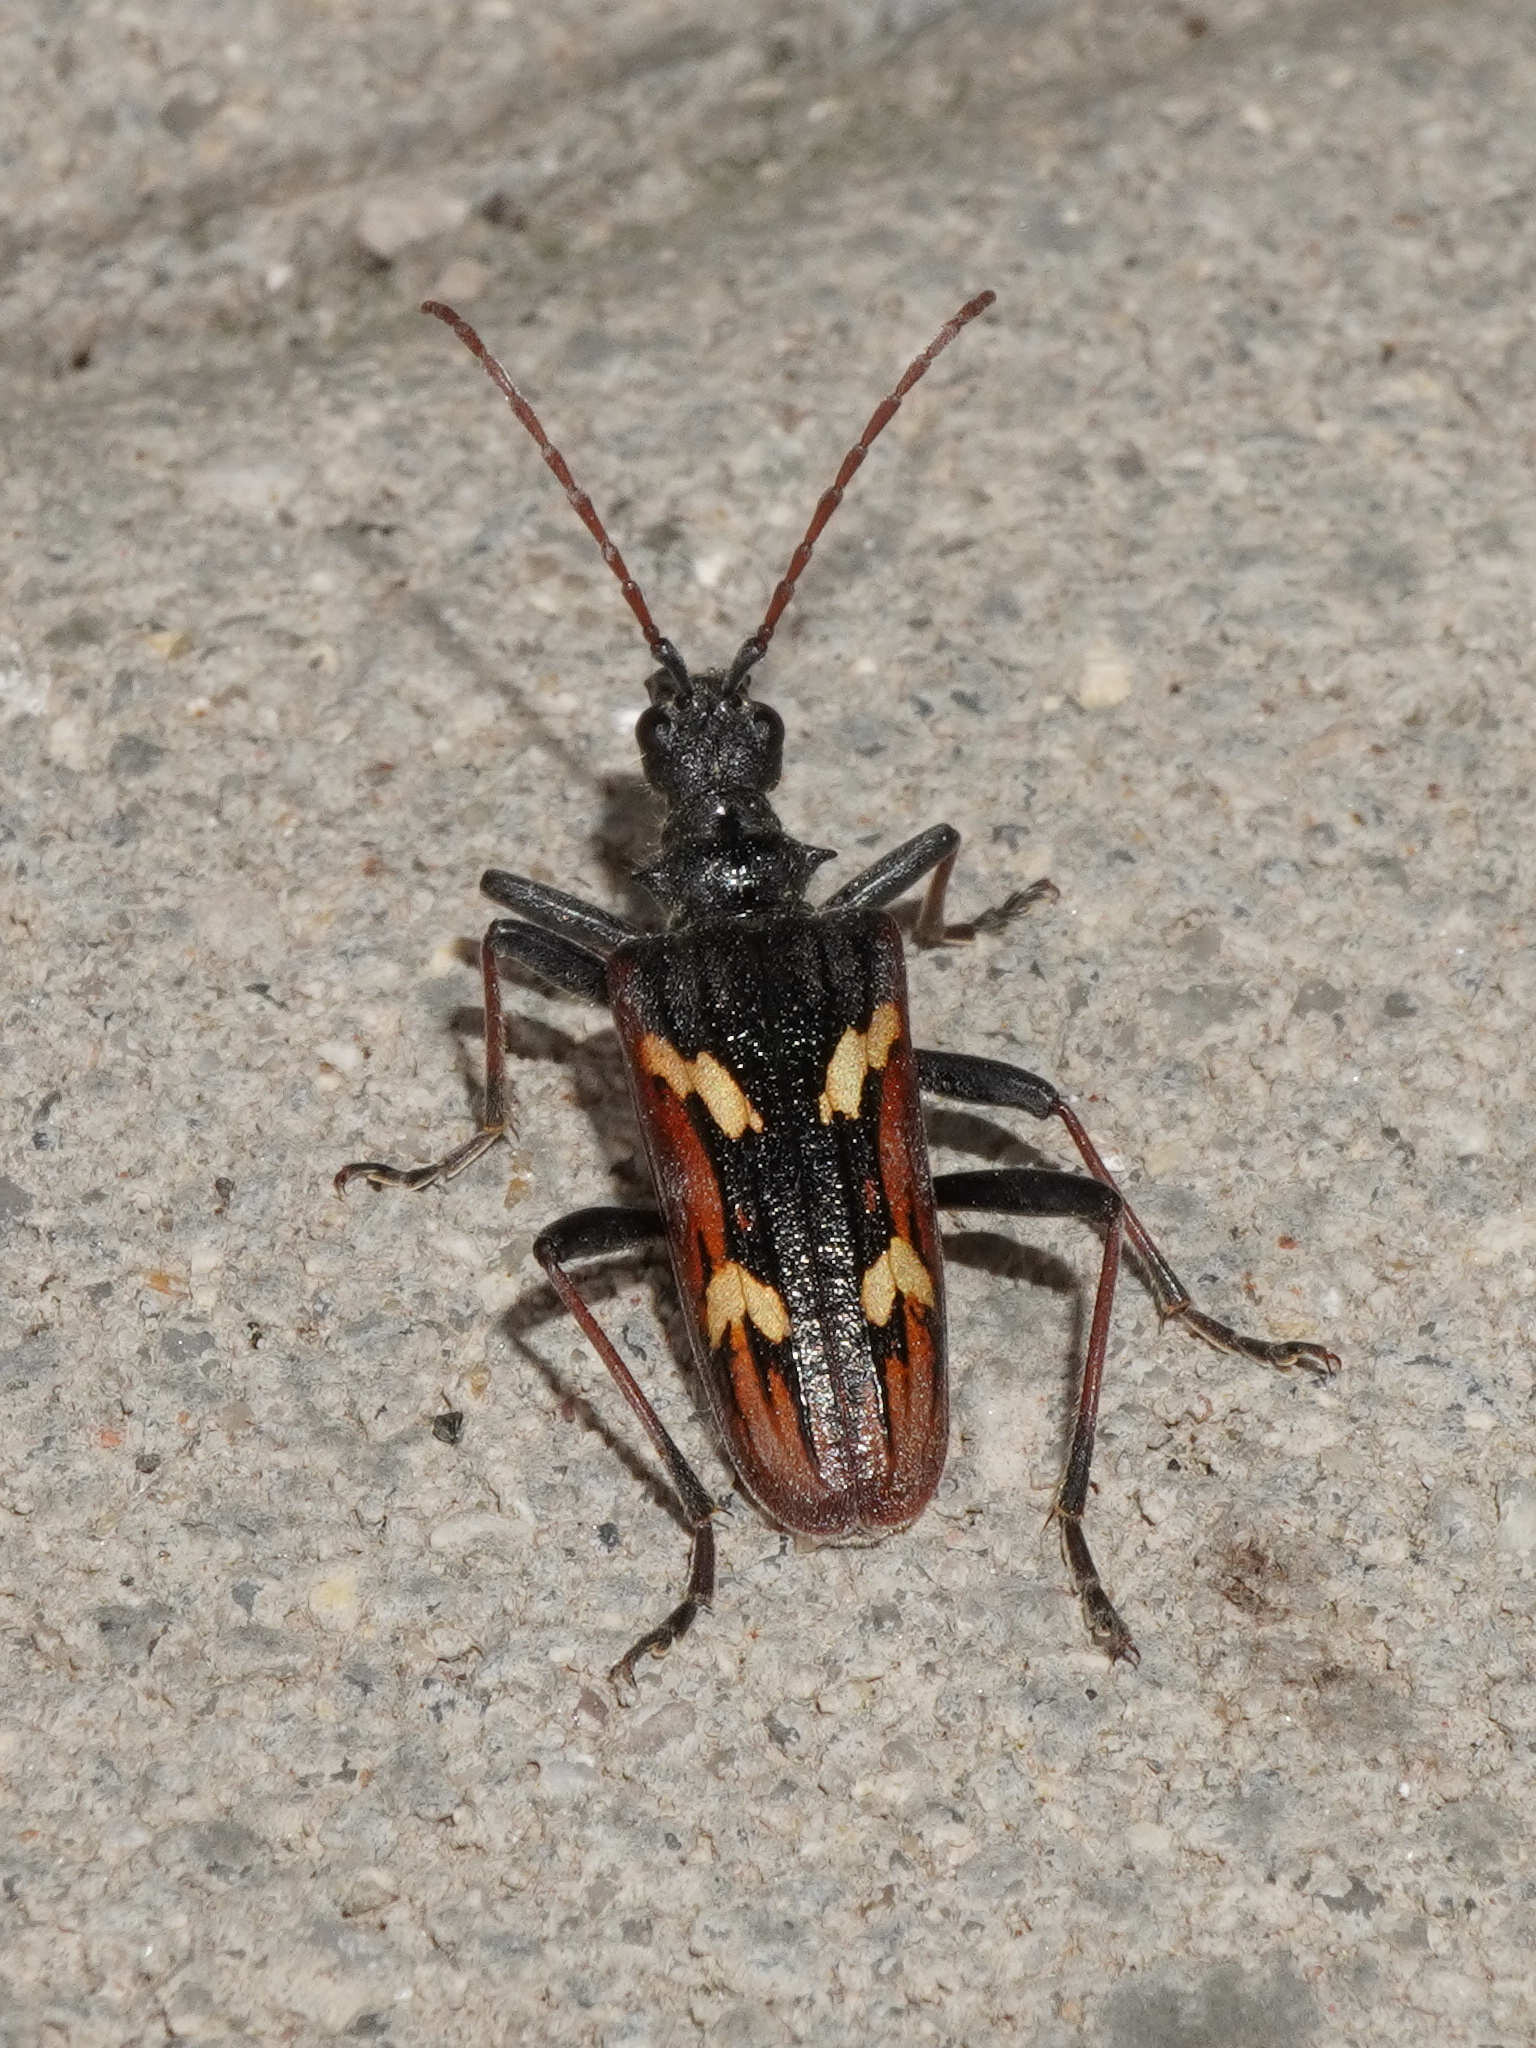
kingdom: Animalia
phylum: Arthropoda
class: Insecta
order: Coleoptera
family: Cerambycidae
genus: Rhagium
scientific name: Rhagium bifasciatum
